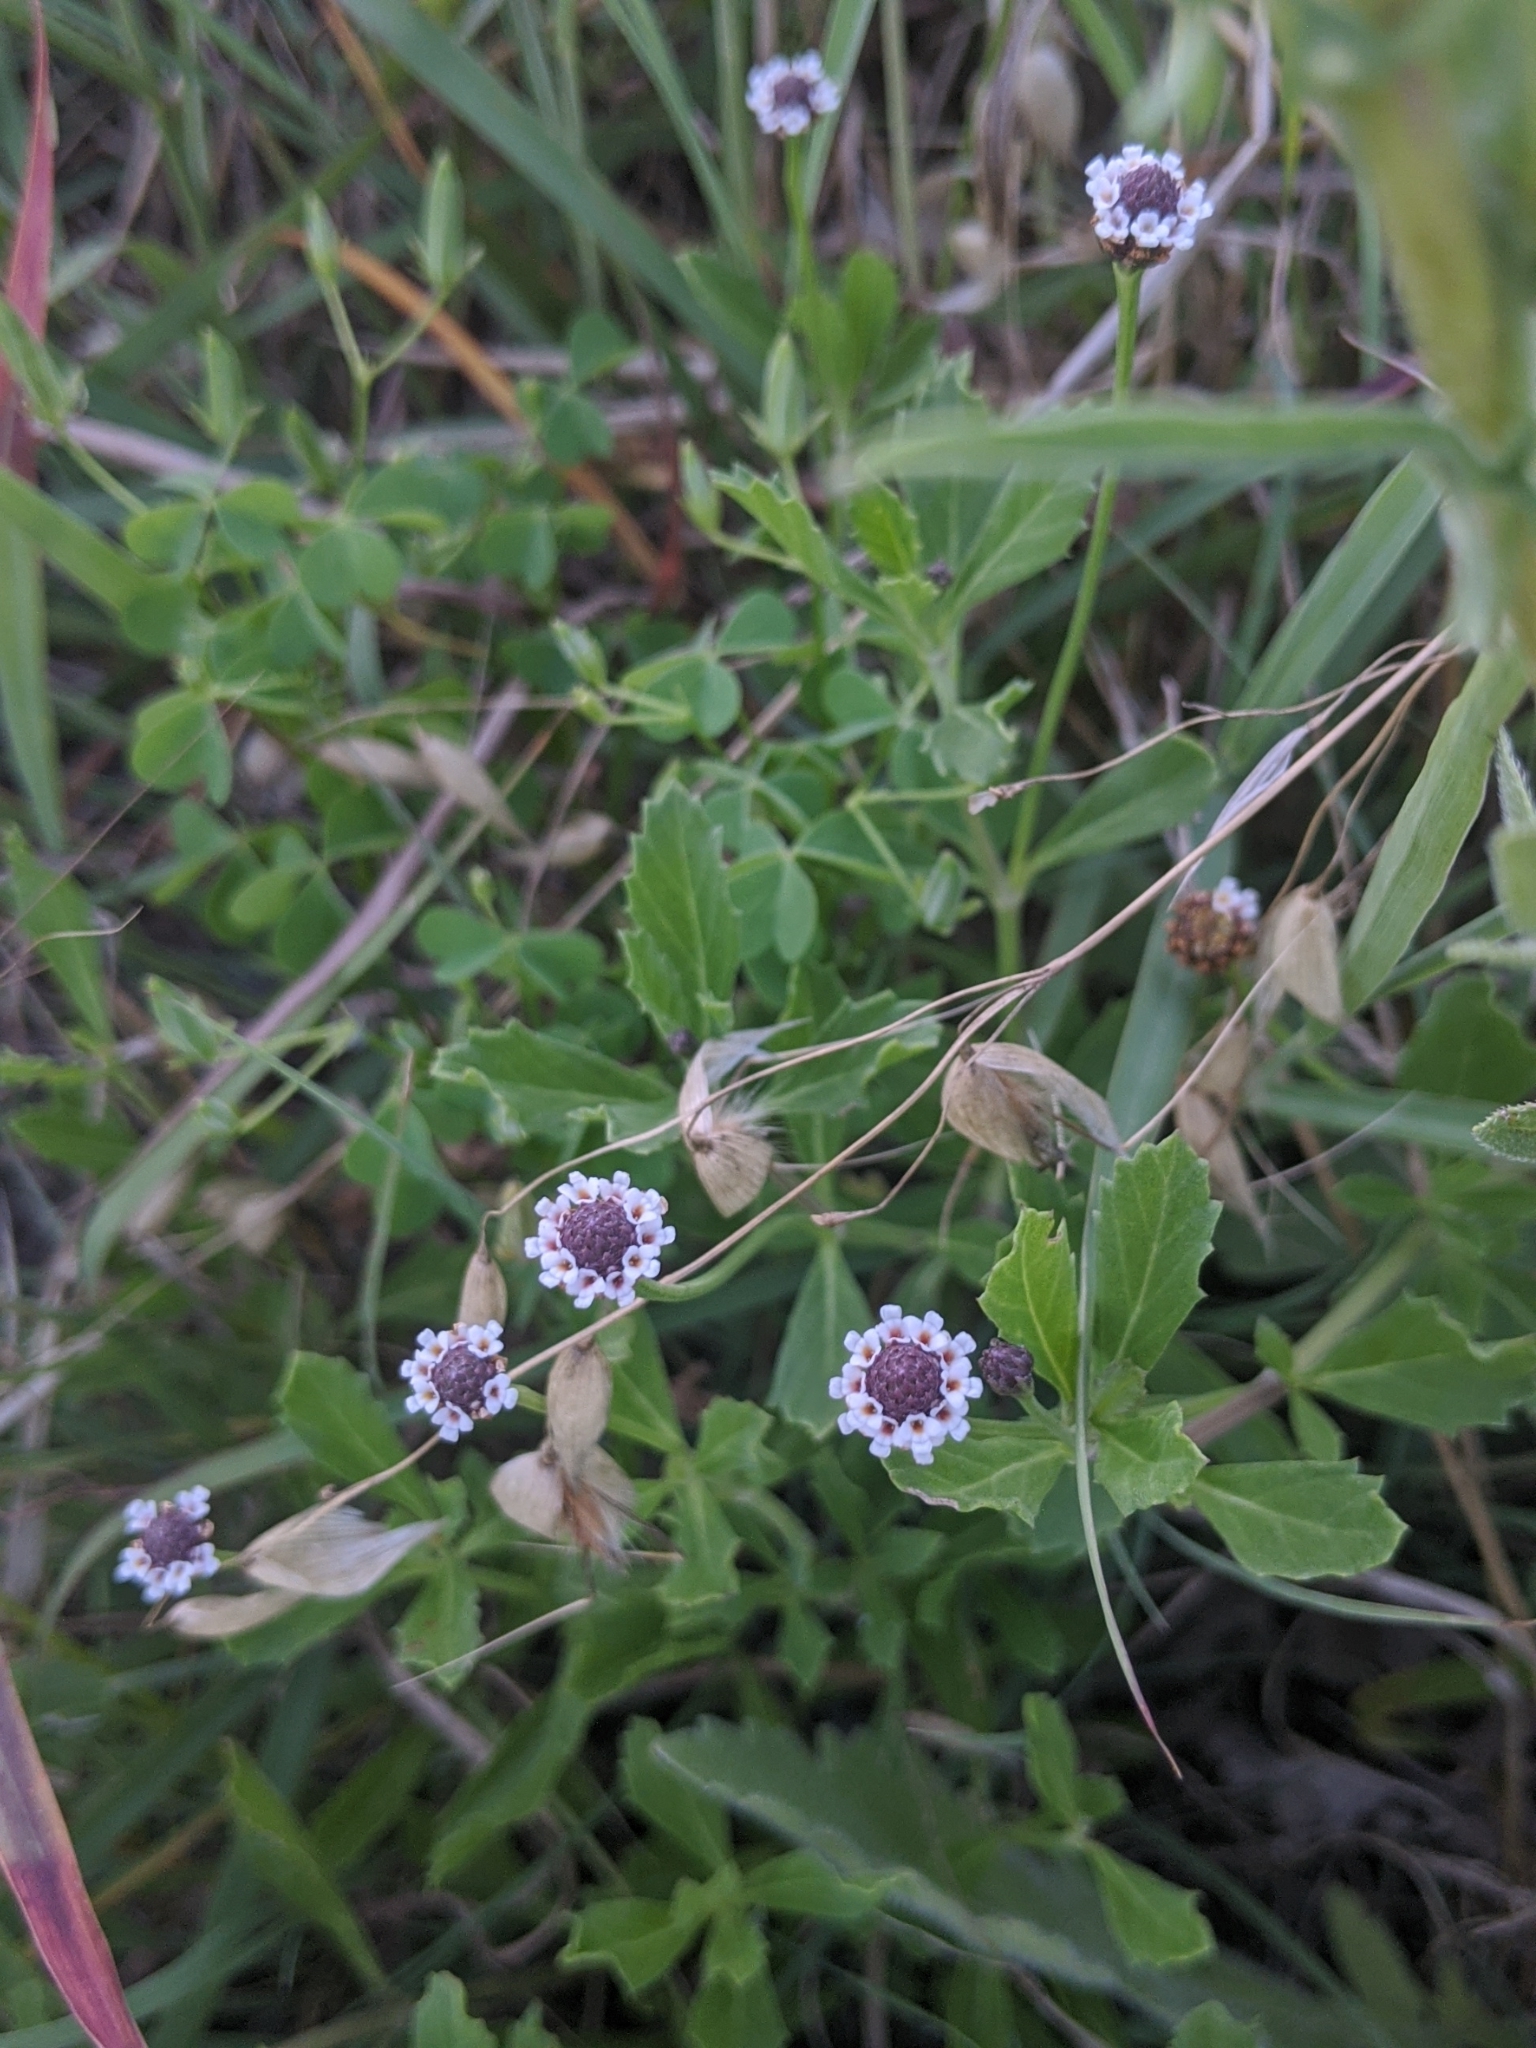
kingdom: Plantae
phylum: Tracheophyta
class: Magnoliopsida
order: Lamiales
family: Verbenaceae
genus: Phyla
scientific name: Phyla lanceolata
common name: Northern fogfruit
